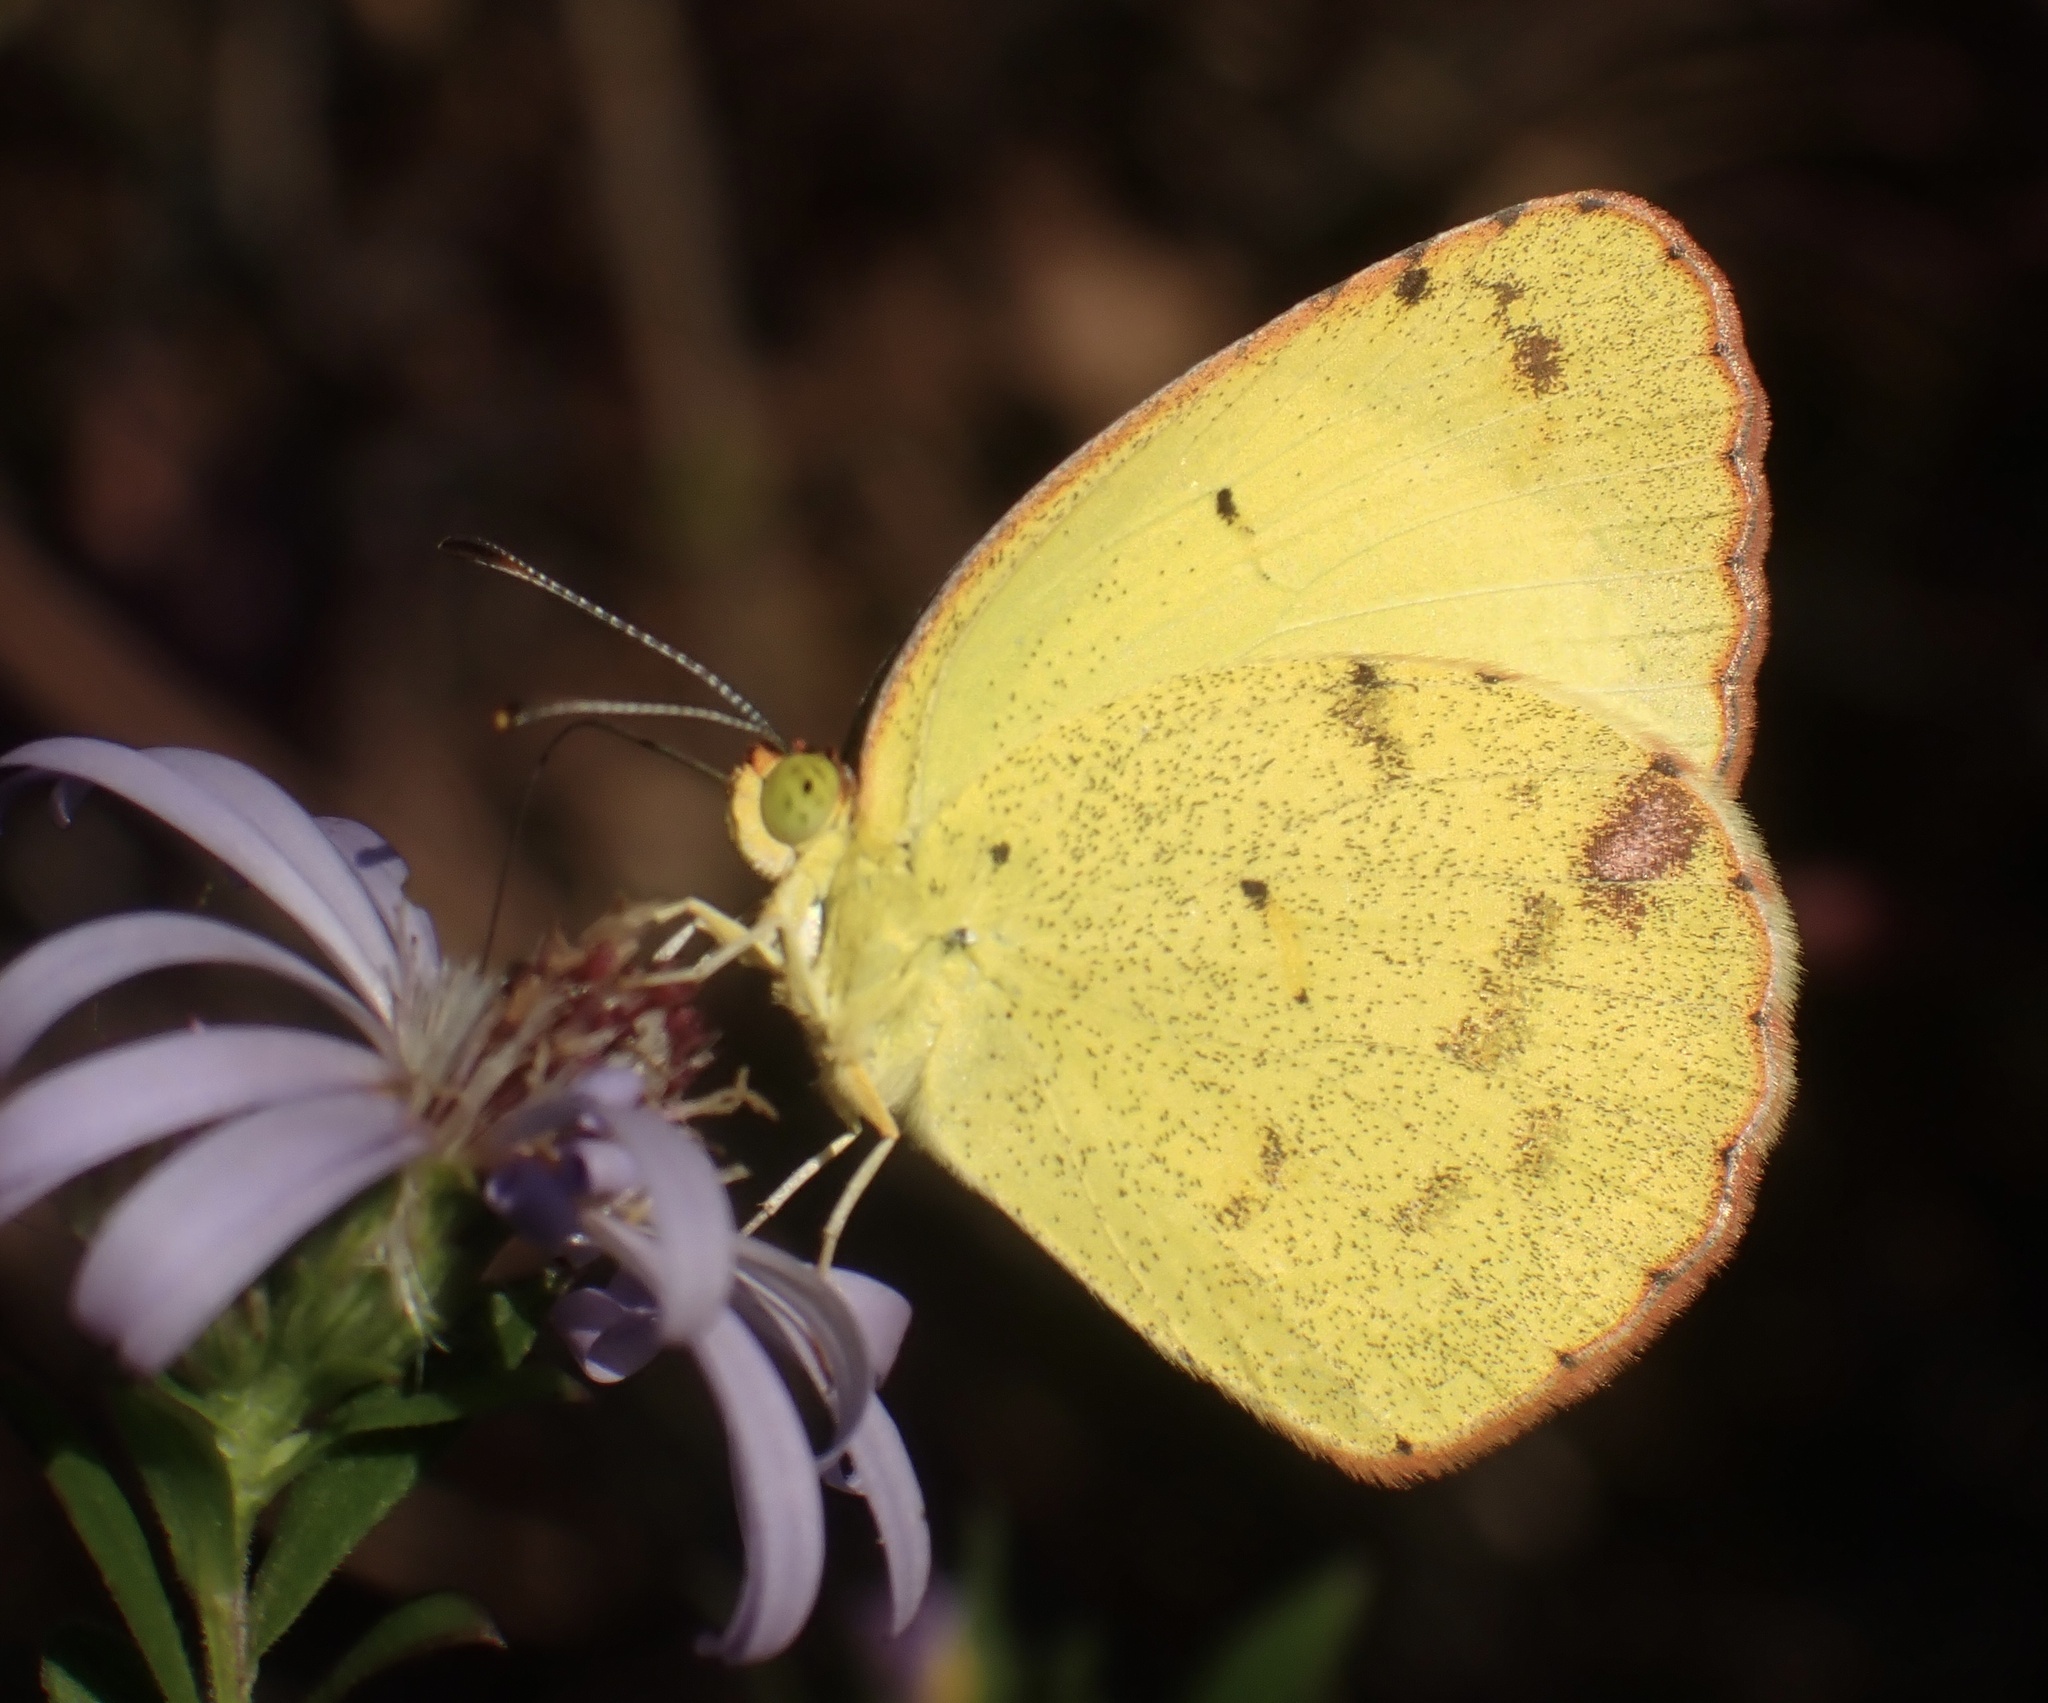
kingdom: Animalia
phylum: Arthropoda
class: Insecta
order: Lepidoptera
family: Pieridae
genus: Pyrisitia
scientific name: Pyrisitia lisa
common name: Little yellow
